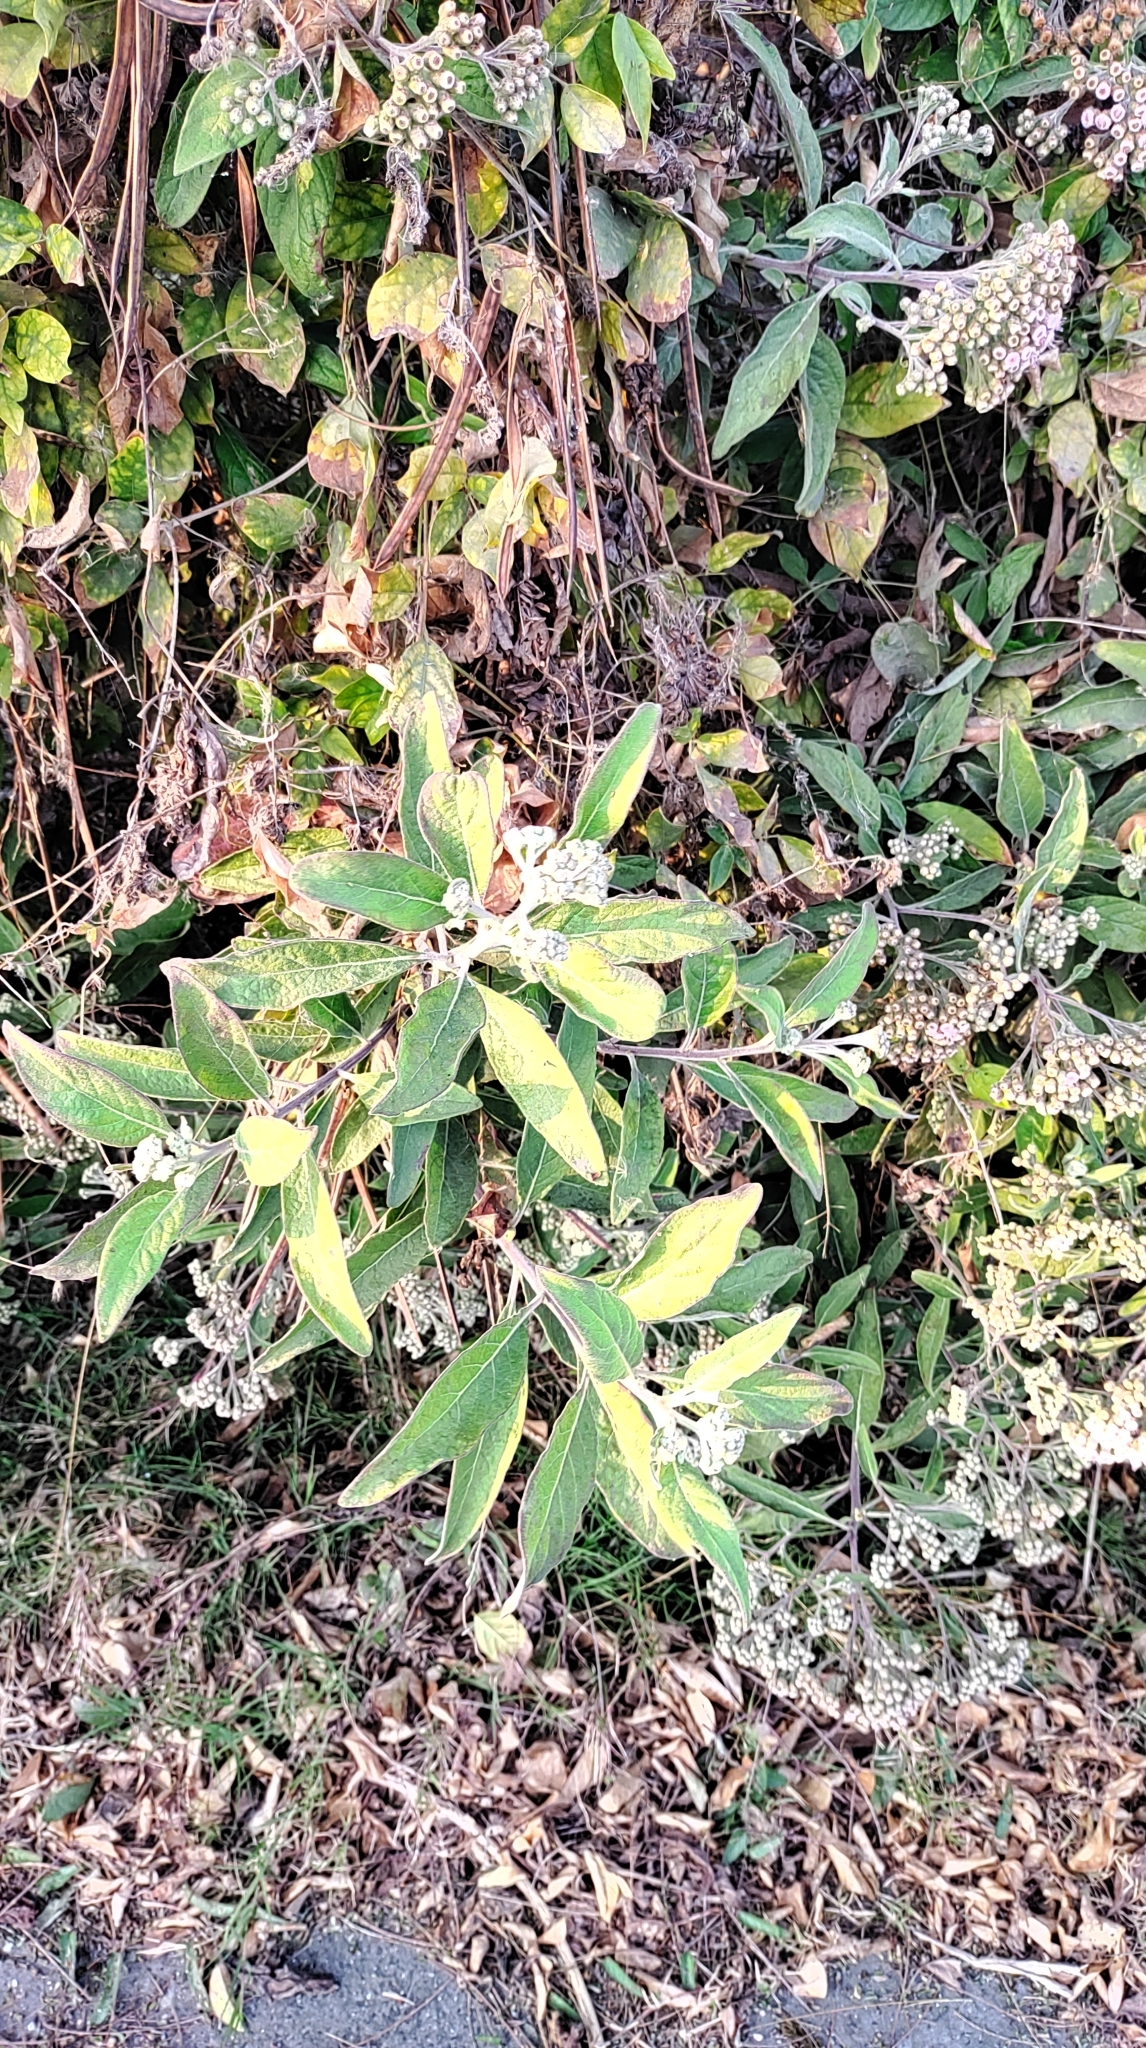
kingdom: Plantae
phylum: Tracheophyta
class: Magnoliopsida
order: Asterales
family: Asteraceae
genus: Pluchea
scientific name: Pluchea carolinensis
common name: Marsh fleabane
